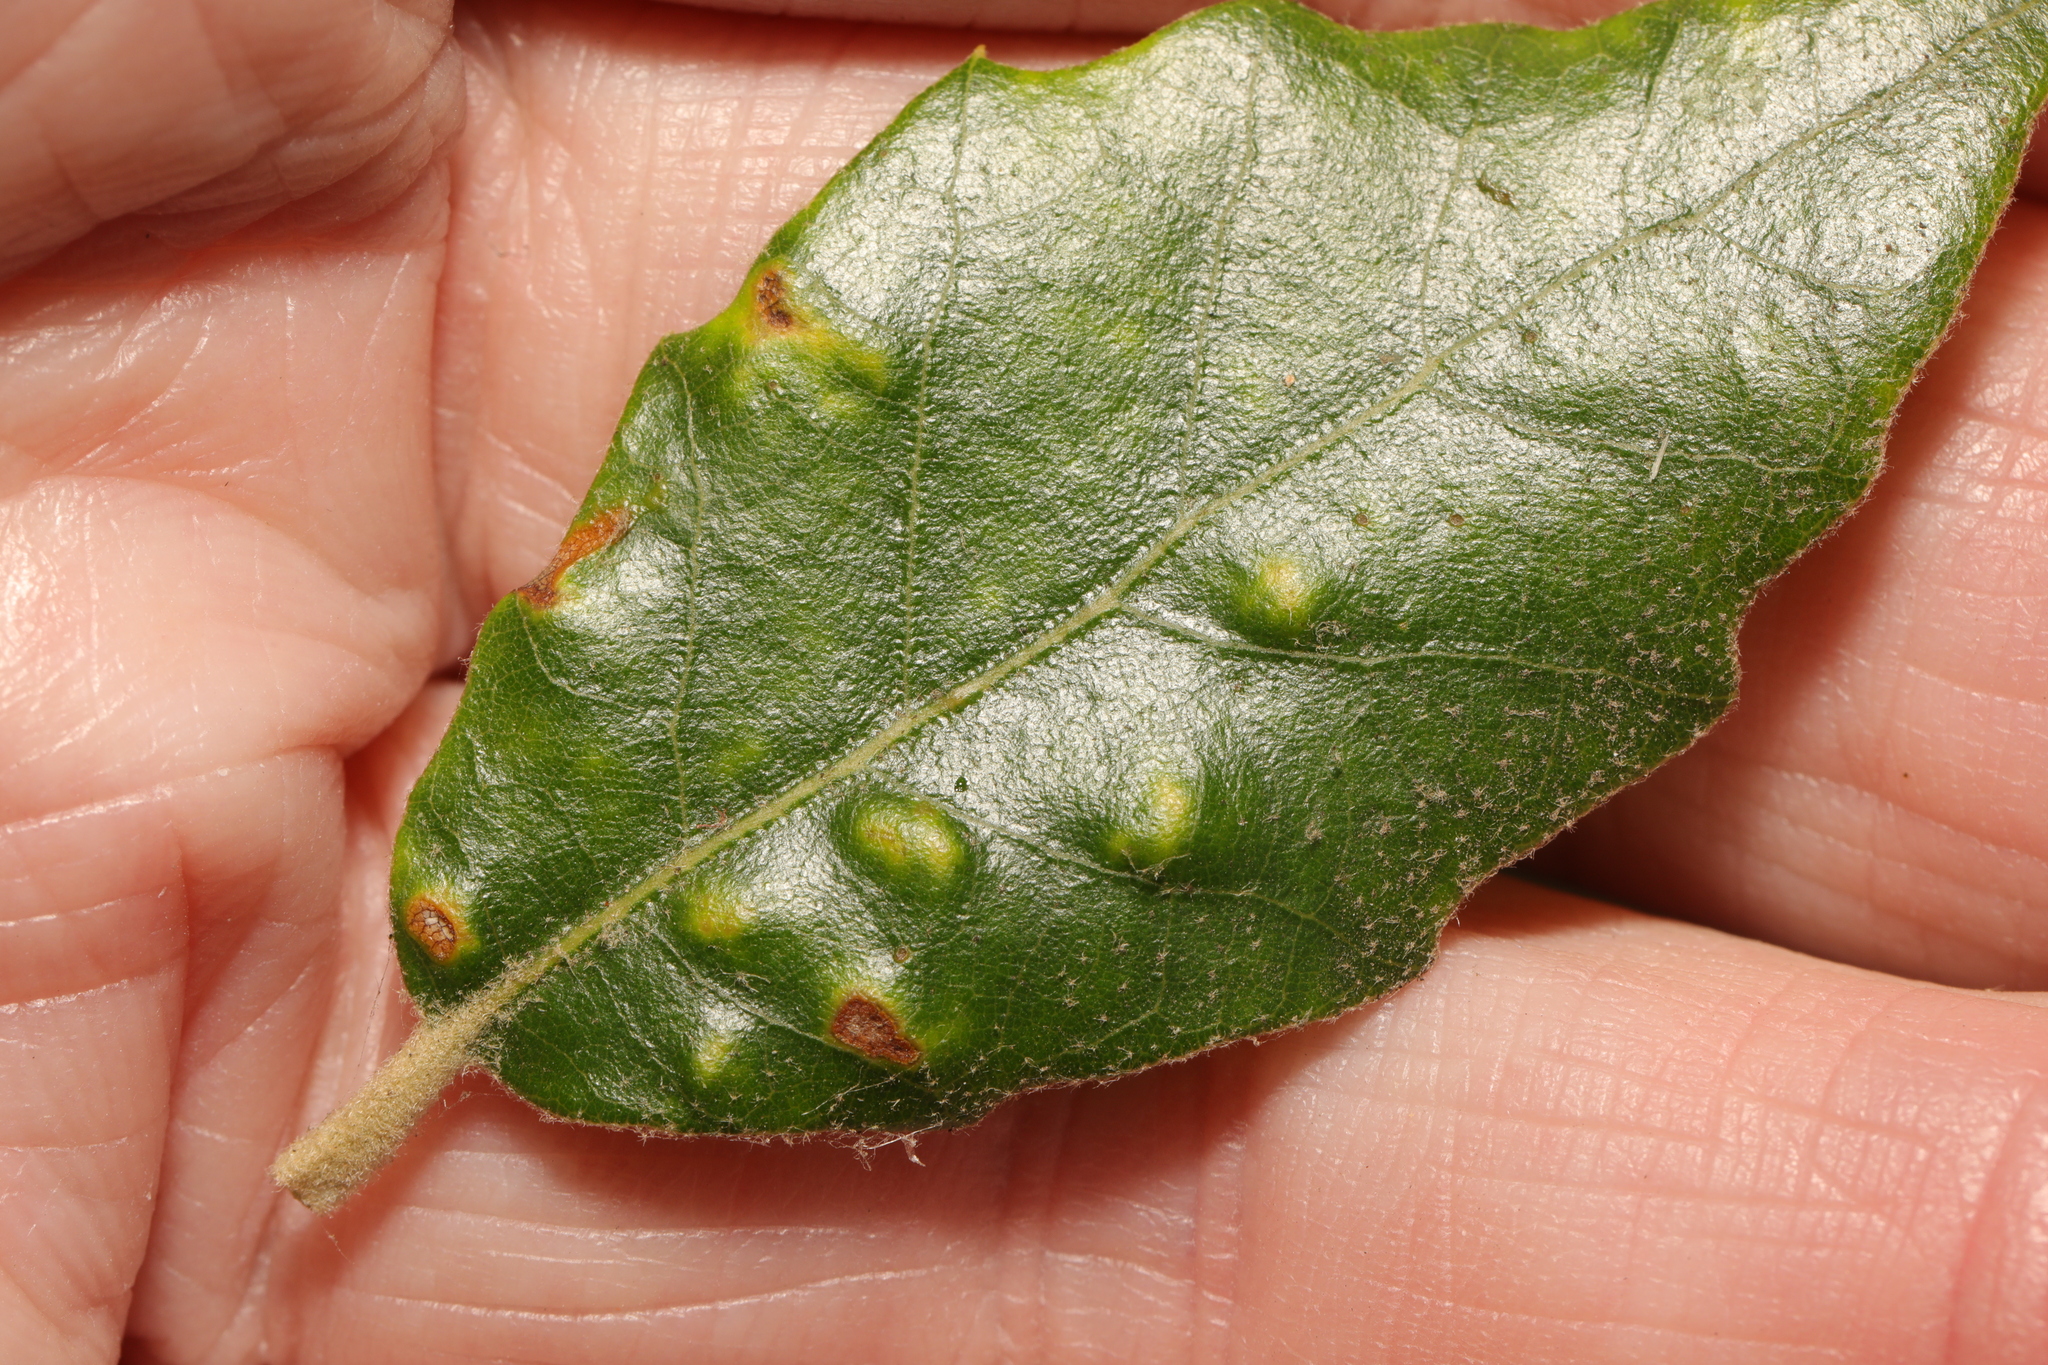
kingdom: Animalia
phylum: Arthropoda
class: Arachnida
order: Trombidiformes
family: Eriophyidae
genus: Aceria
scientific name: Aceria ilicis
